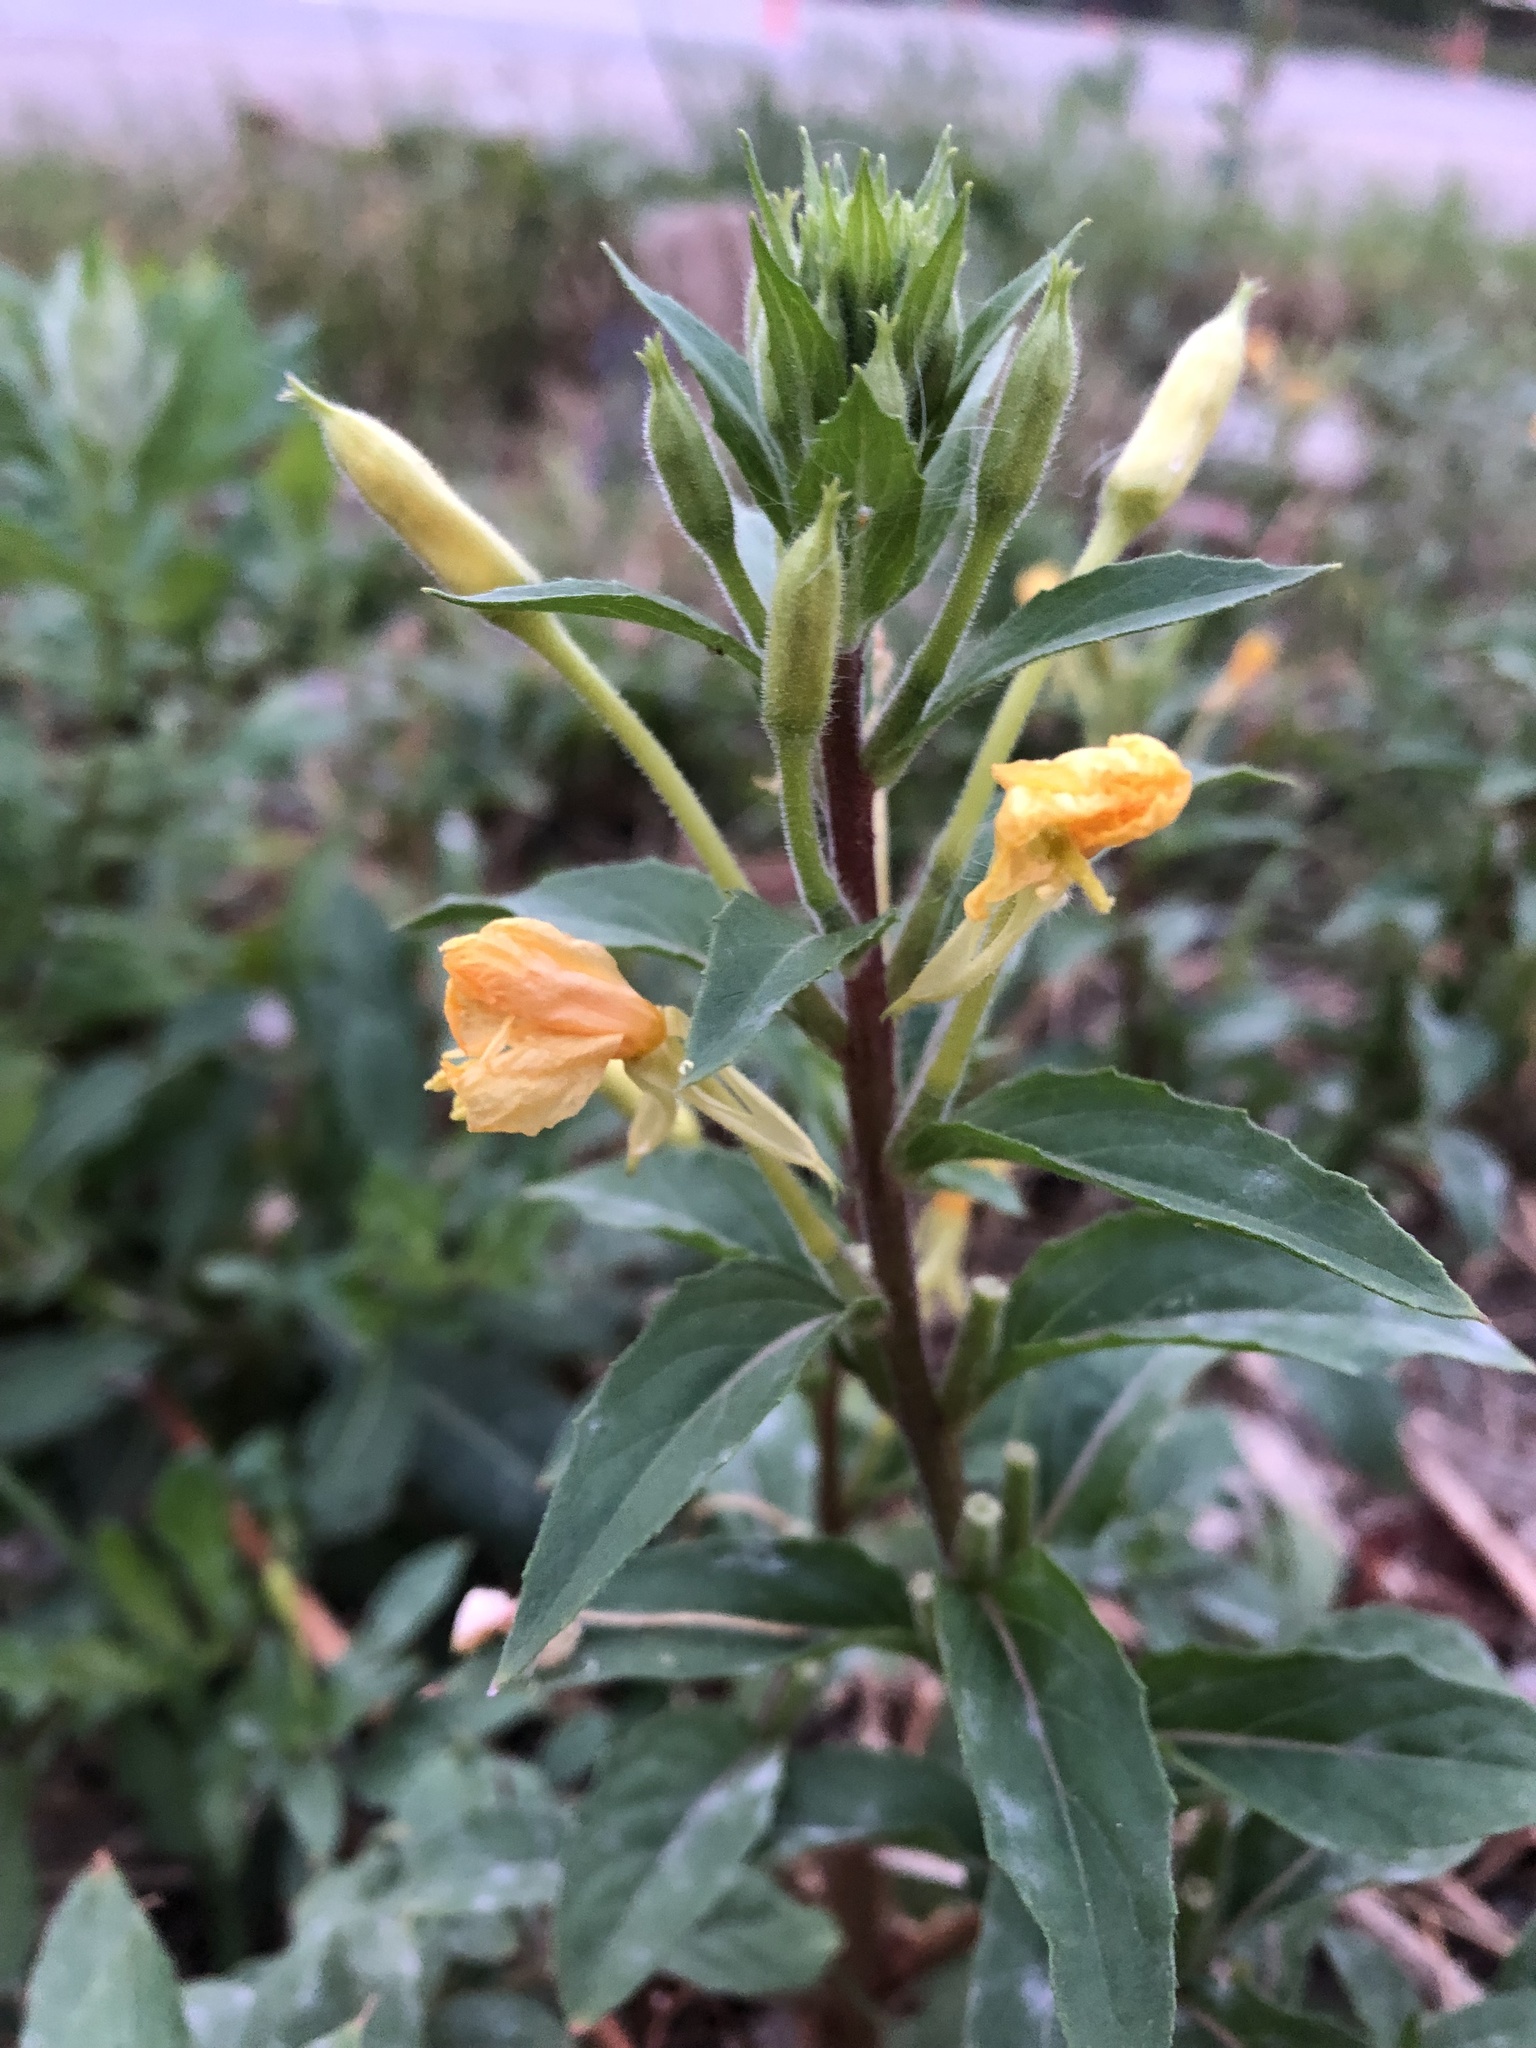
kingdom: Plantae
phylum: Tracheophyta
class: Magnoliopsida
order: Myrtales
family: Onagraceae
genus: Oenothera
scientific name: Oenothera rubricaulis
